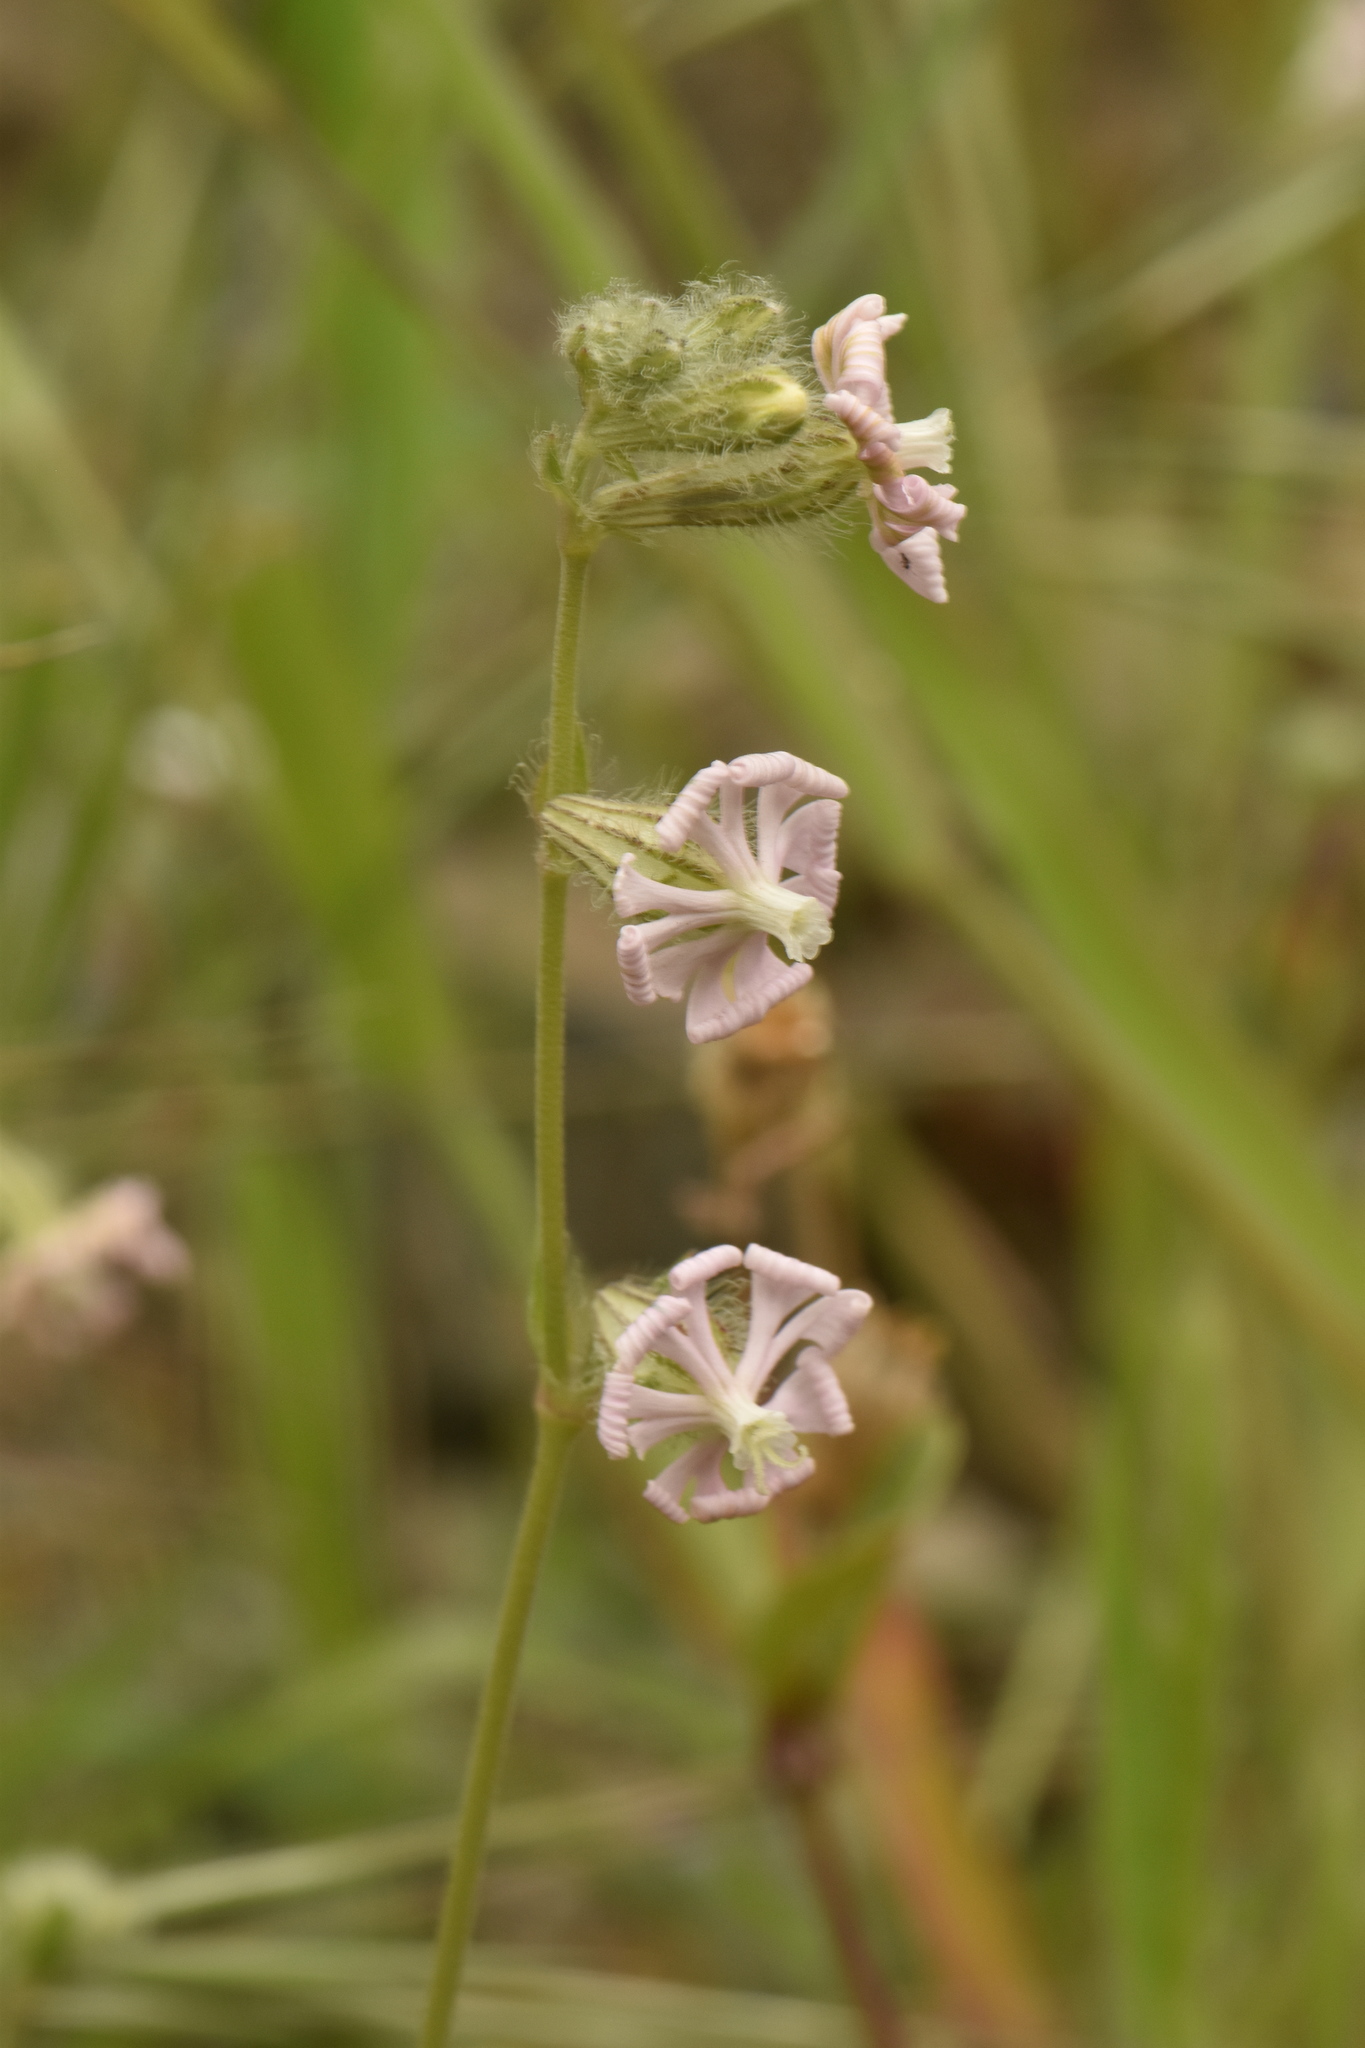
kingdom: Plantae
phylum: Tracheophyta
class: Magnoliopsida
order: Caryophyllales
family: Caryophyllaceae
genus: Silene
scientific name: Silene colorata
